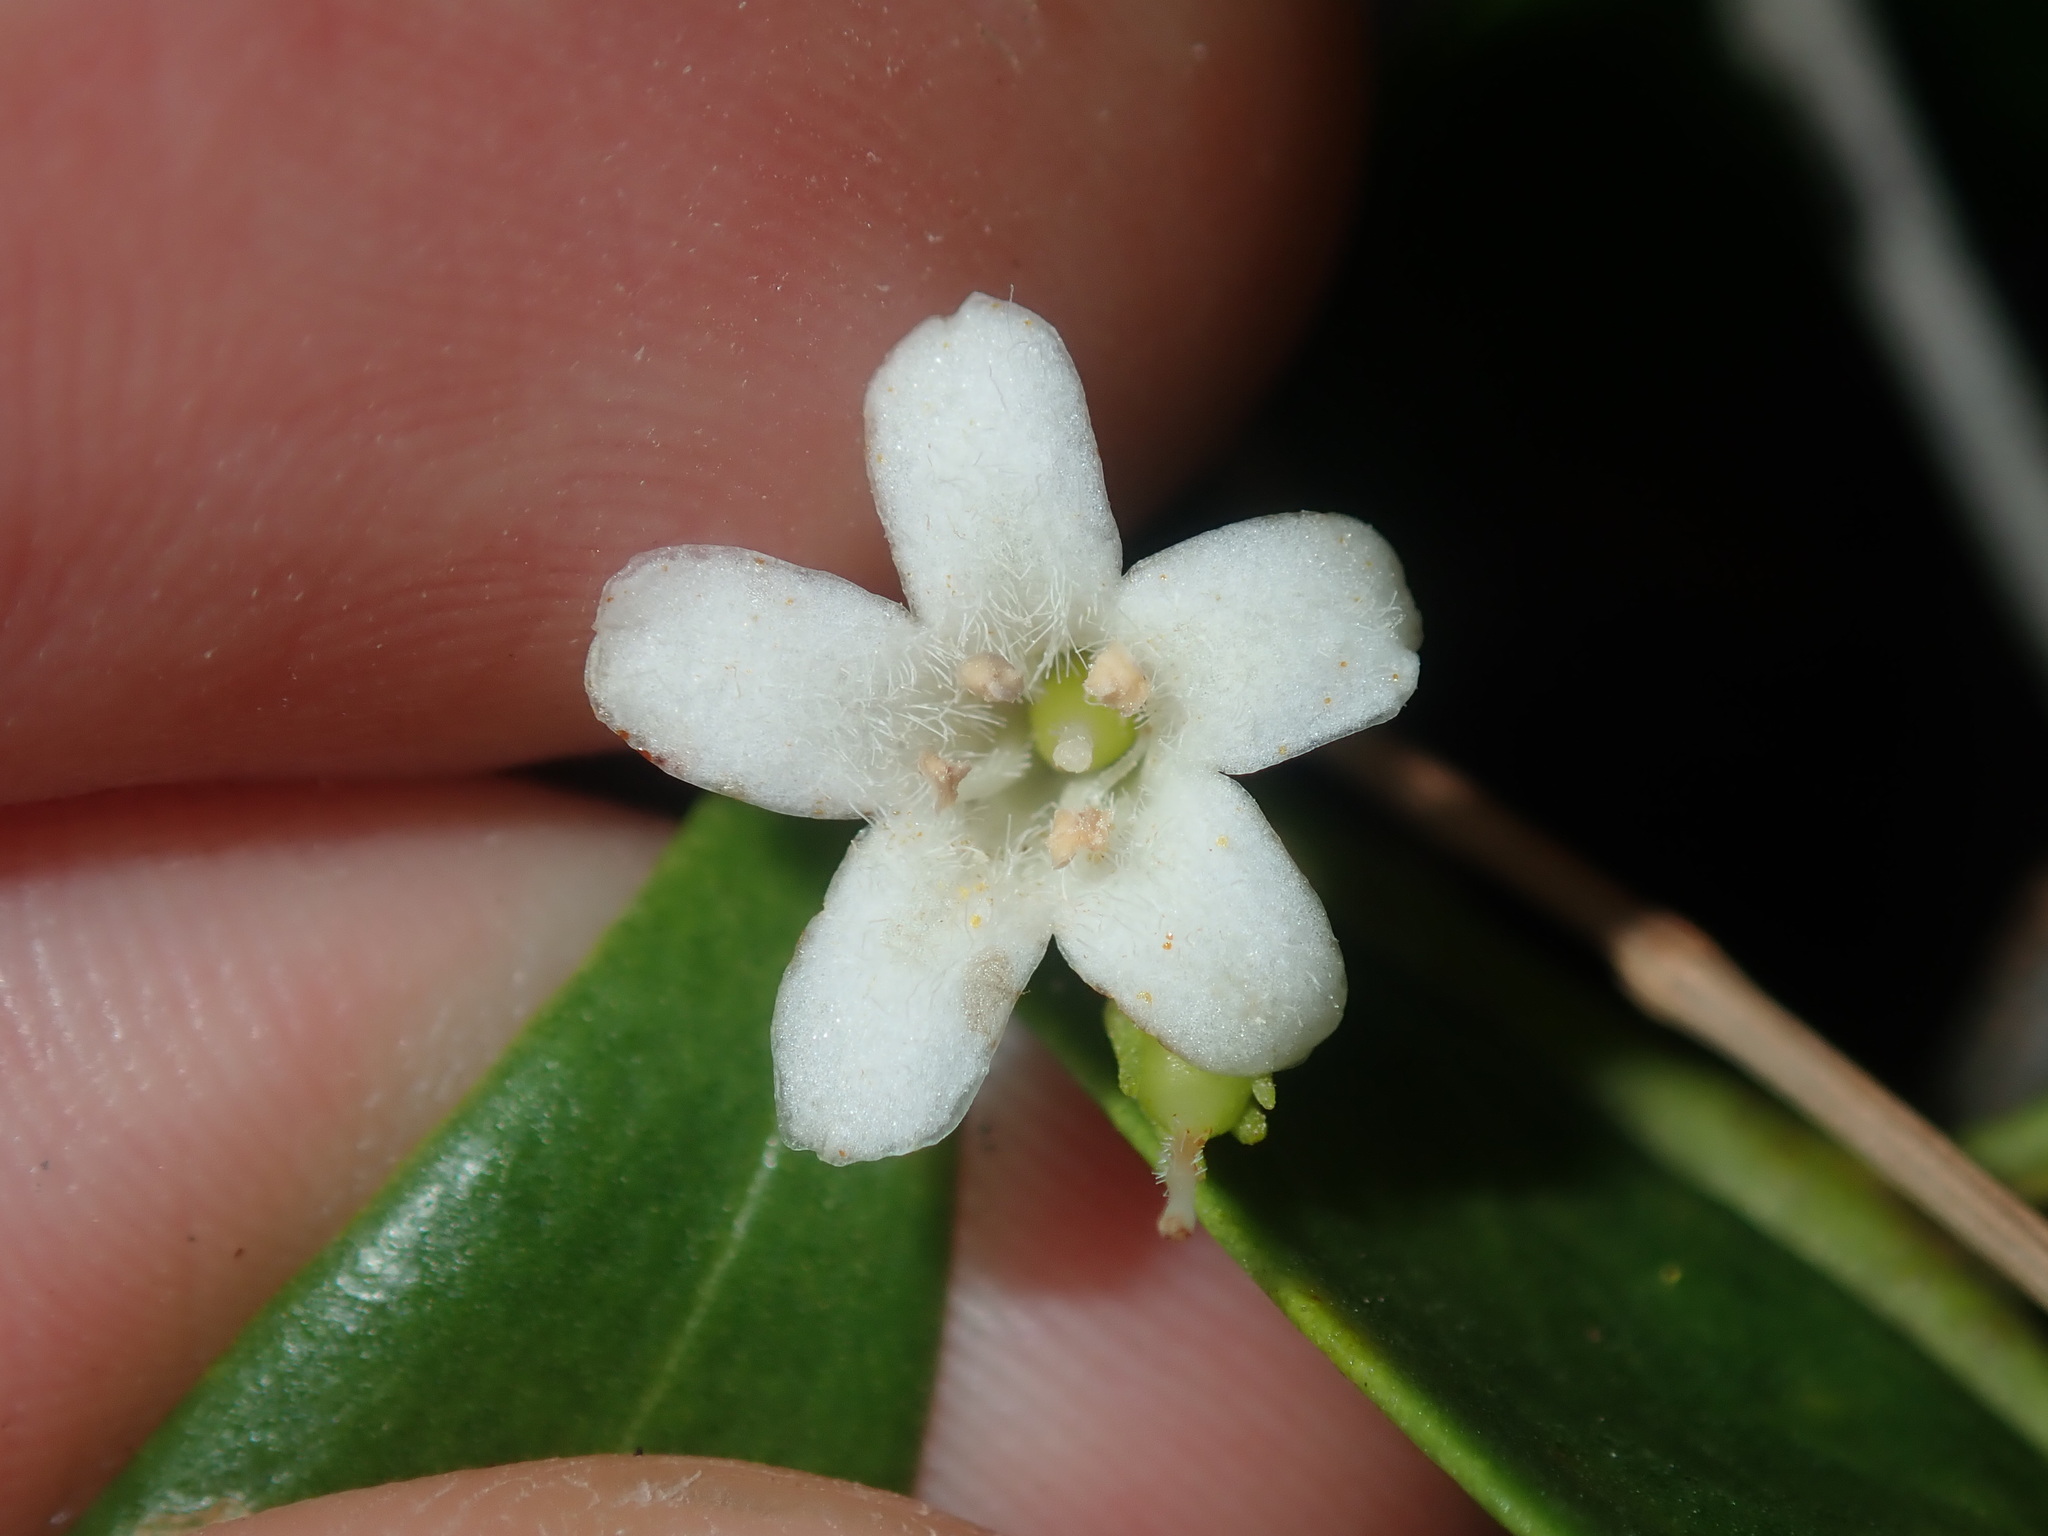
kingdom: Plantae
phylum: Tracheophyta
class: Magnoliopsida
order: Lamiales
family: Scrophulariaceae
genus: Myoporum
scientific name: Myoporum boninense
